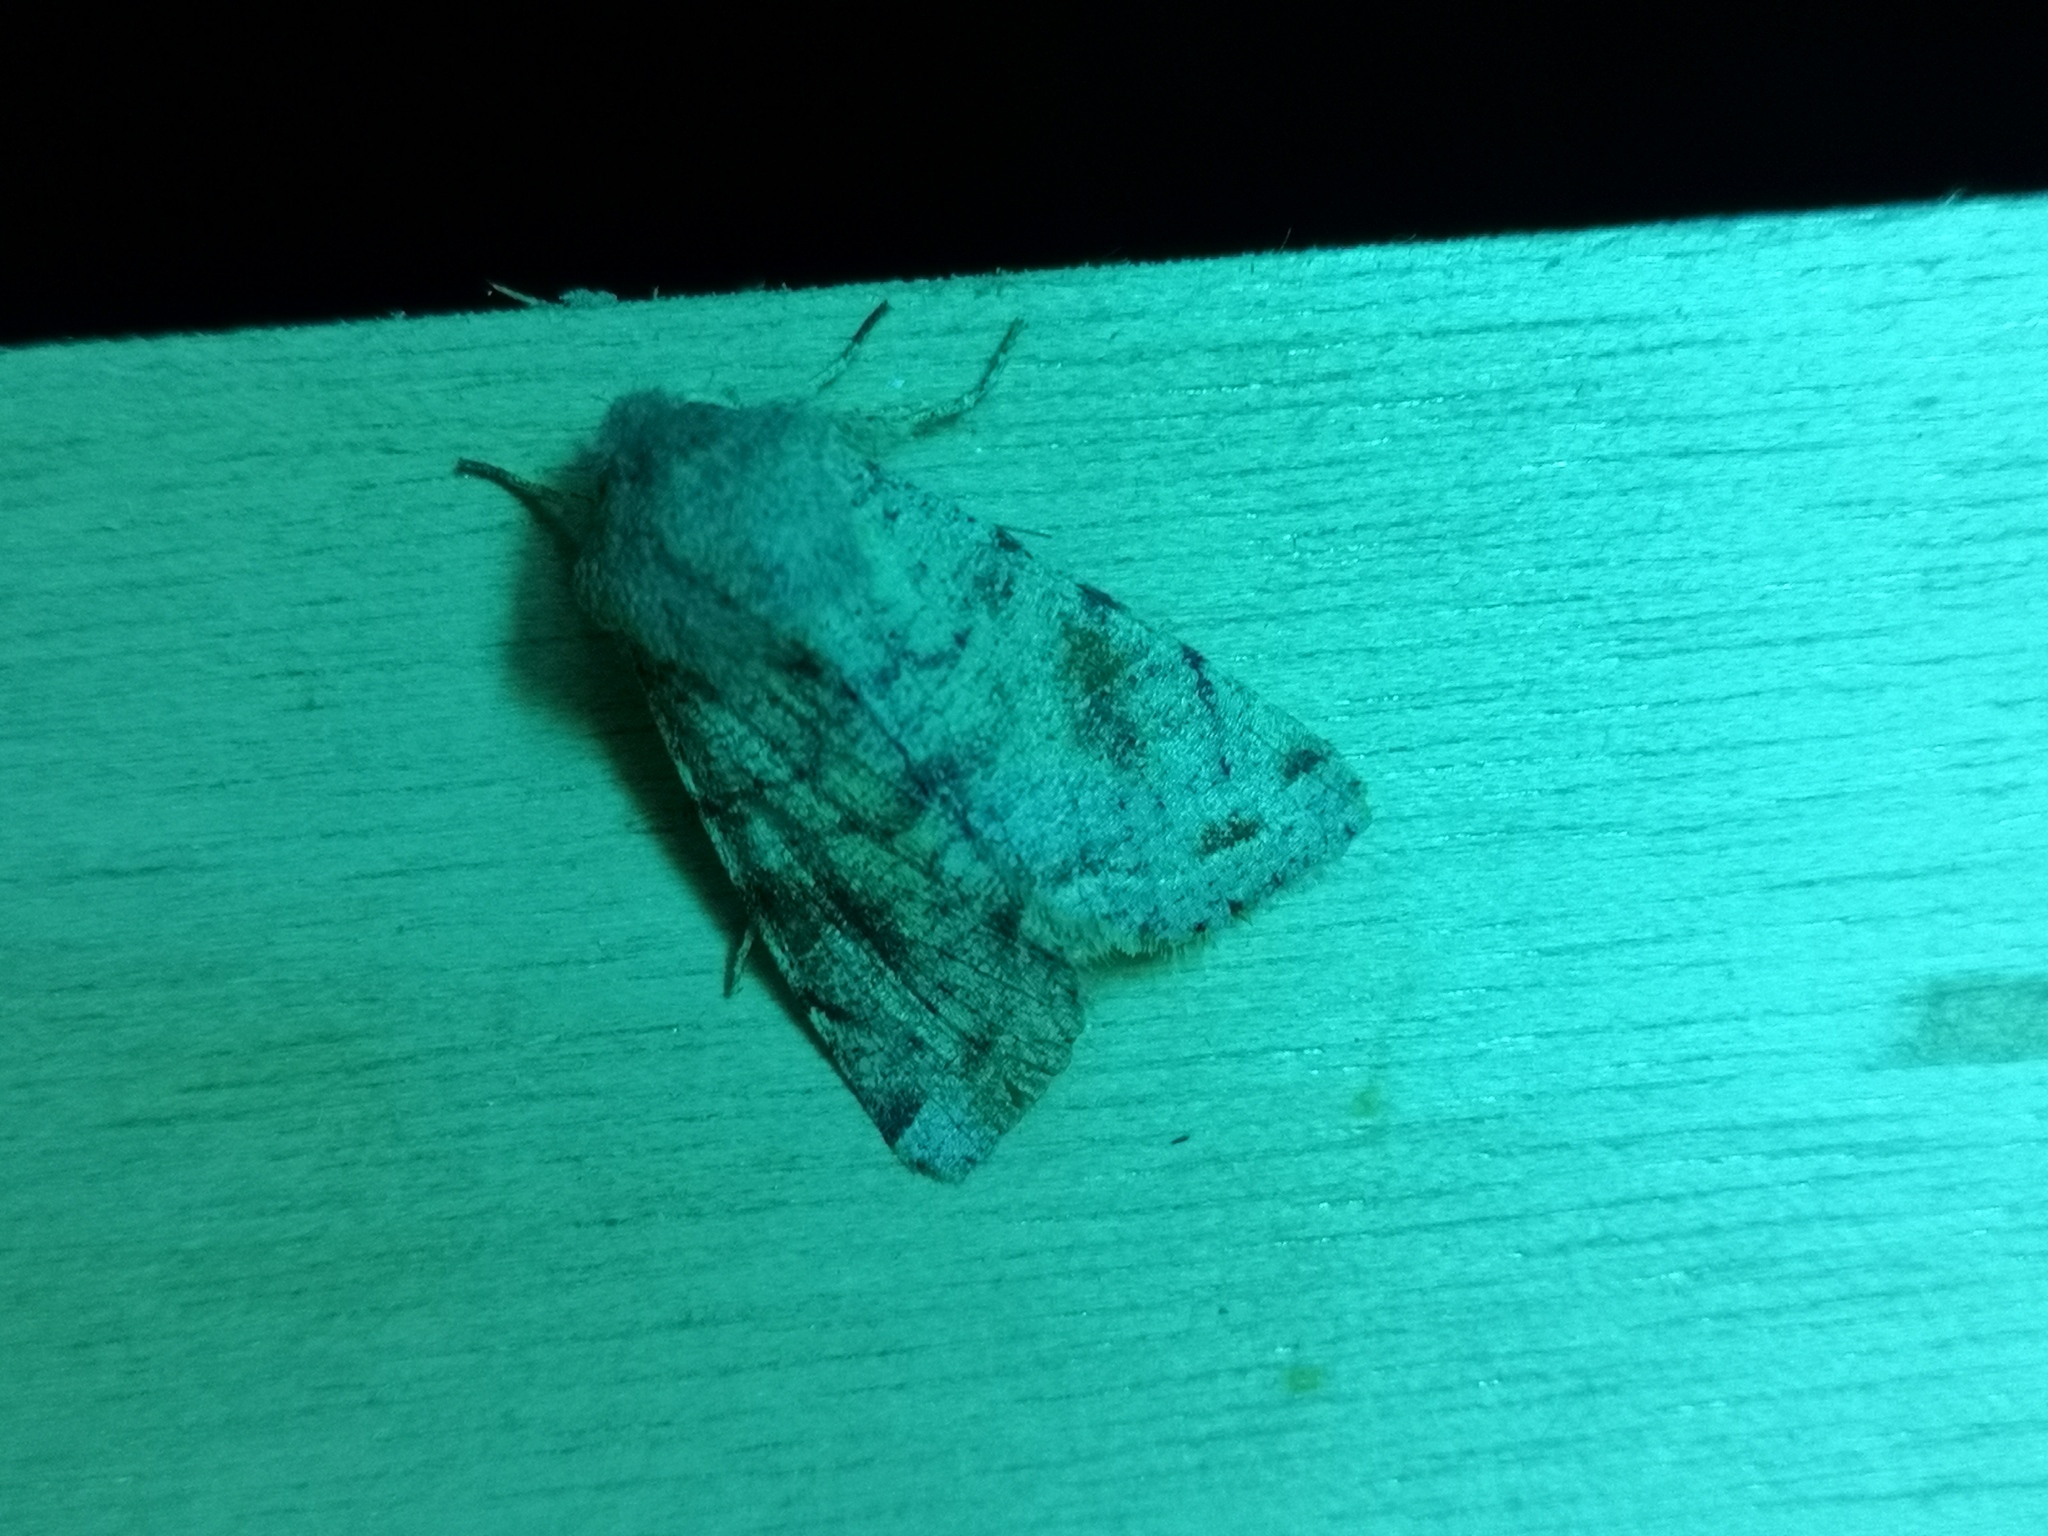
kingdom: Animalia
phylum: Arthropoda
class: Insecta
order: Lepidoptera
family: Noctuidae
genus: Orthosia
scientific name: Orthosia incerta
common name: Clouded drab
